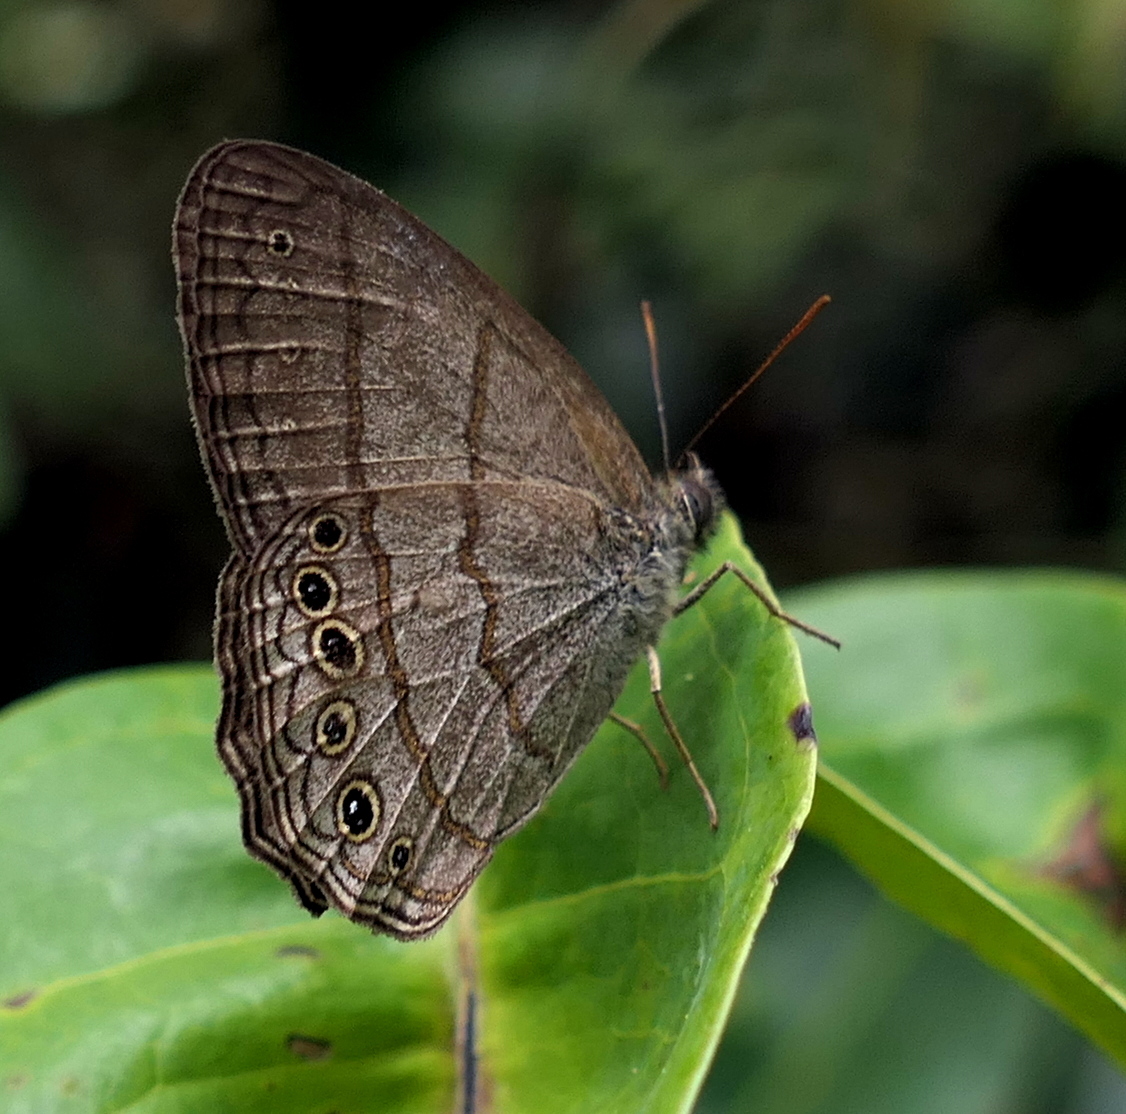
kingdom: Animalia
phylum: Arthropoda
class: Insecta
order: Lepidoptera
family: Nymphalidae
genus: Paryphthimoides
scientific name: Paryphthimoides poltys
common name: Poltys satyr
